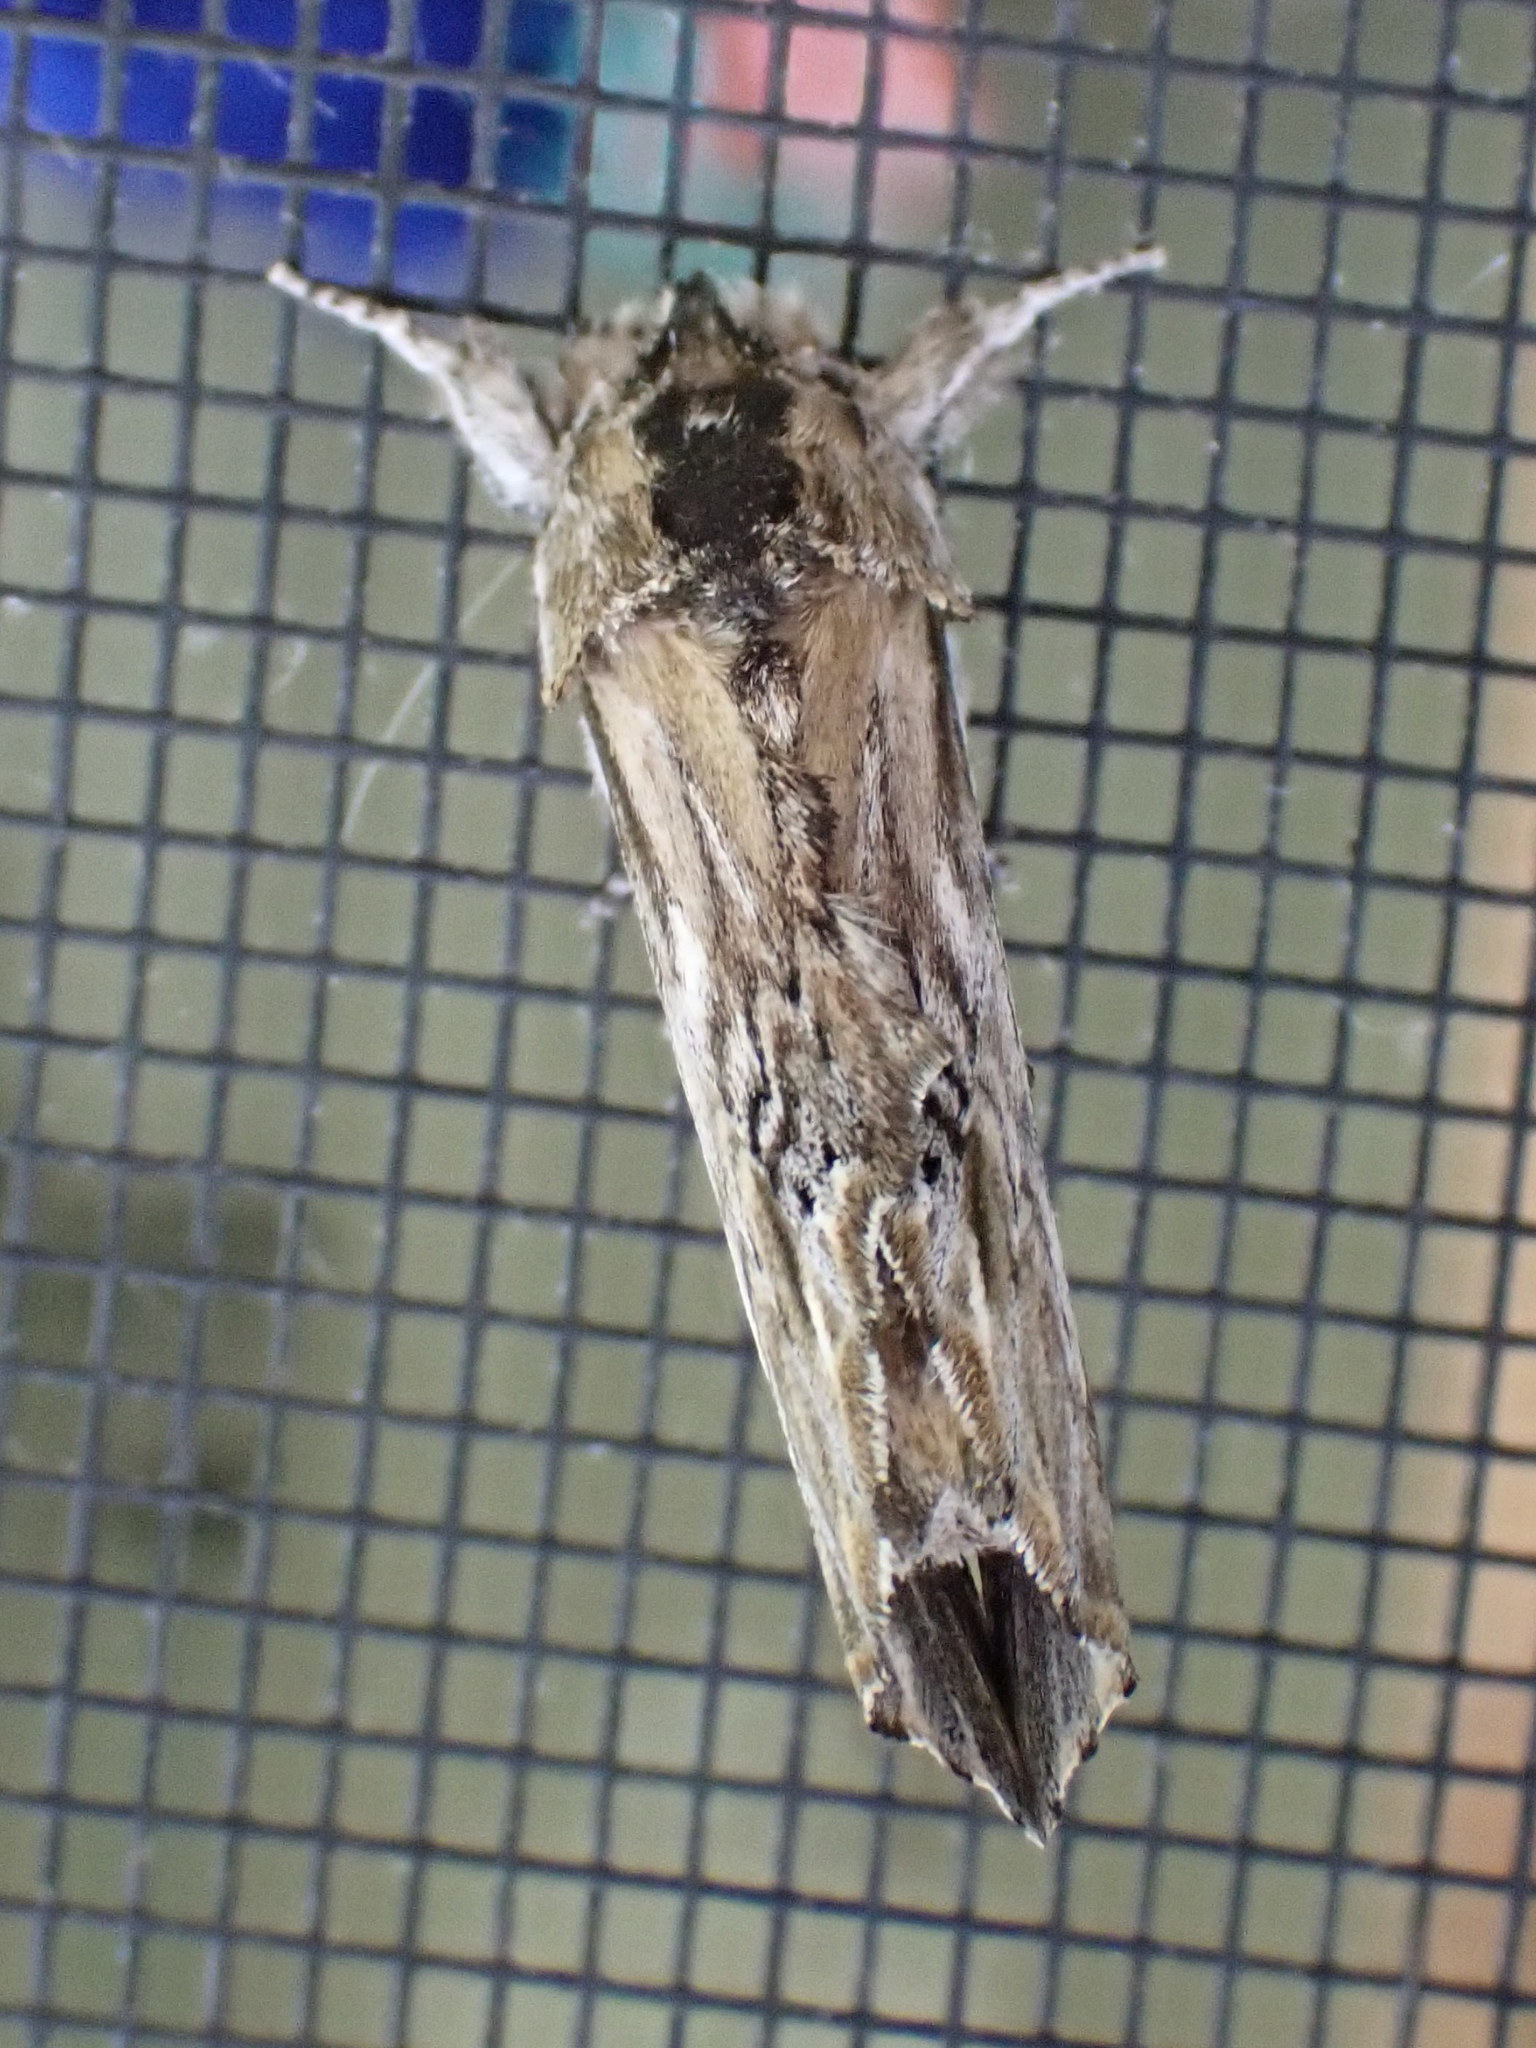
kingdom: Animalia
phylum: Arthropoda
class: Insecta
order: Lepidoptera
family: Notodontidae
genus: Oligocentria
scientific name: Oligocentria Ianassa lignicolor
